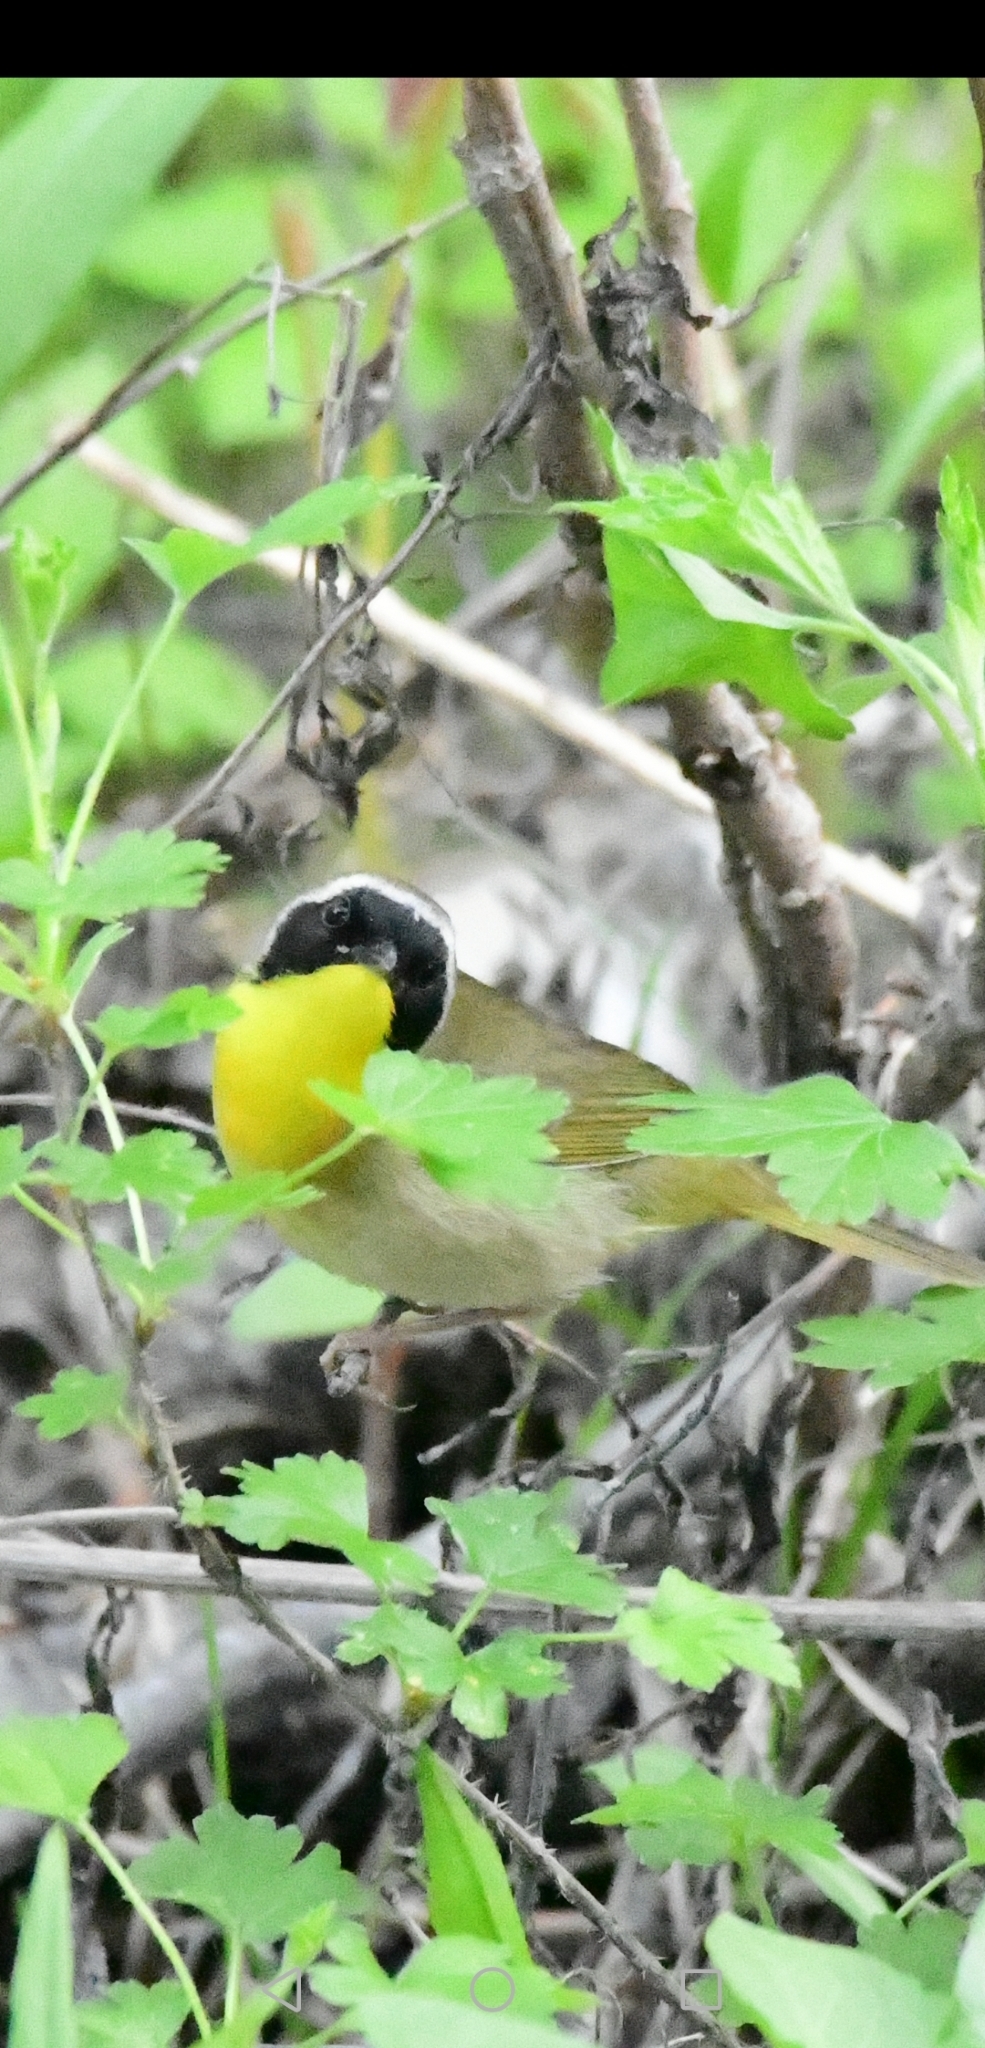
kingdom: Animalia
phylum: Chordata
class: Aves
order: Passeriformes
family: Parulidae
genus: Geothlypis
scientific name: Geothlypis trichas
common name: Common yellowthroat
